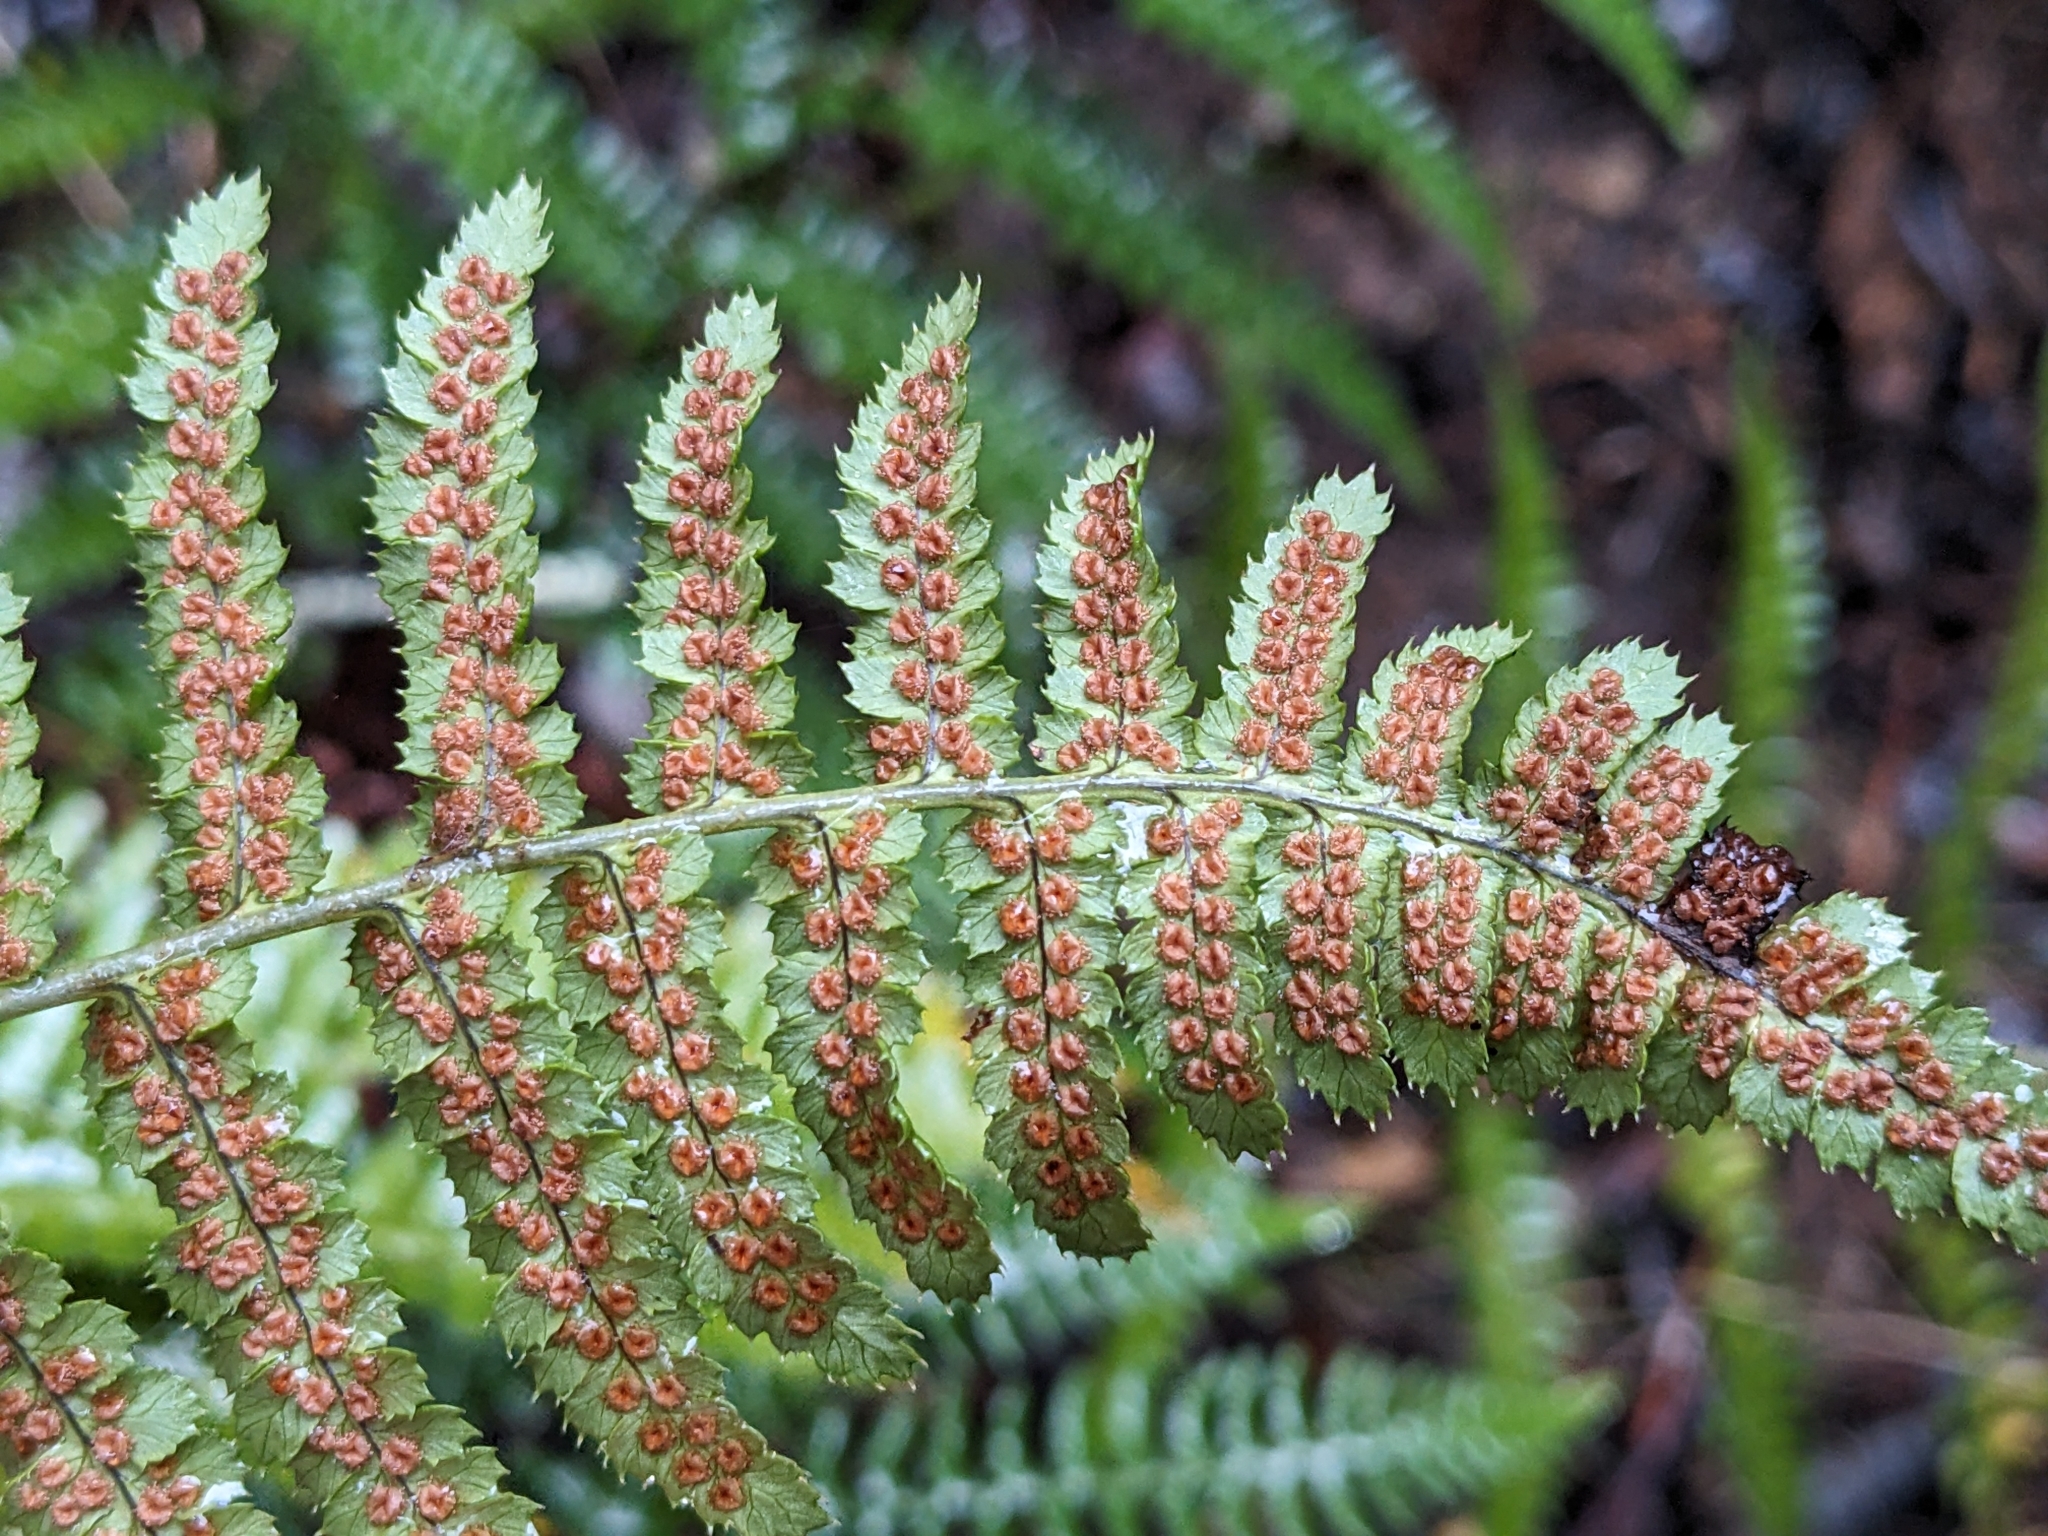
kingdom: Plantae
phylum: Tracheophyta
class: Polypodiopsida
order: Polypodiales
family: Dryopteridaceae
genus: Dryopteris
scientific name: Dryopteris arguta
